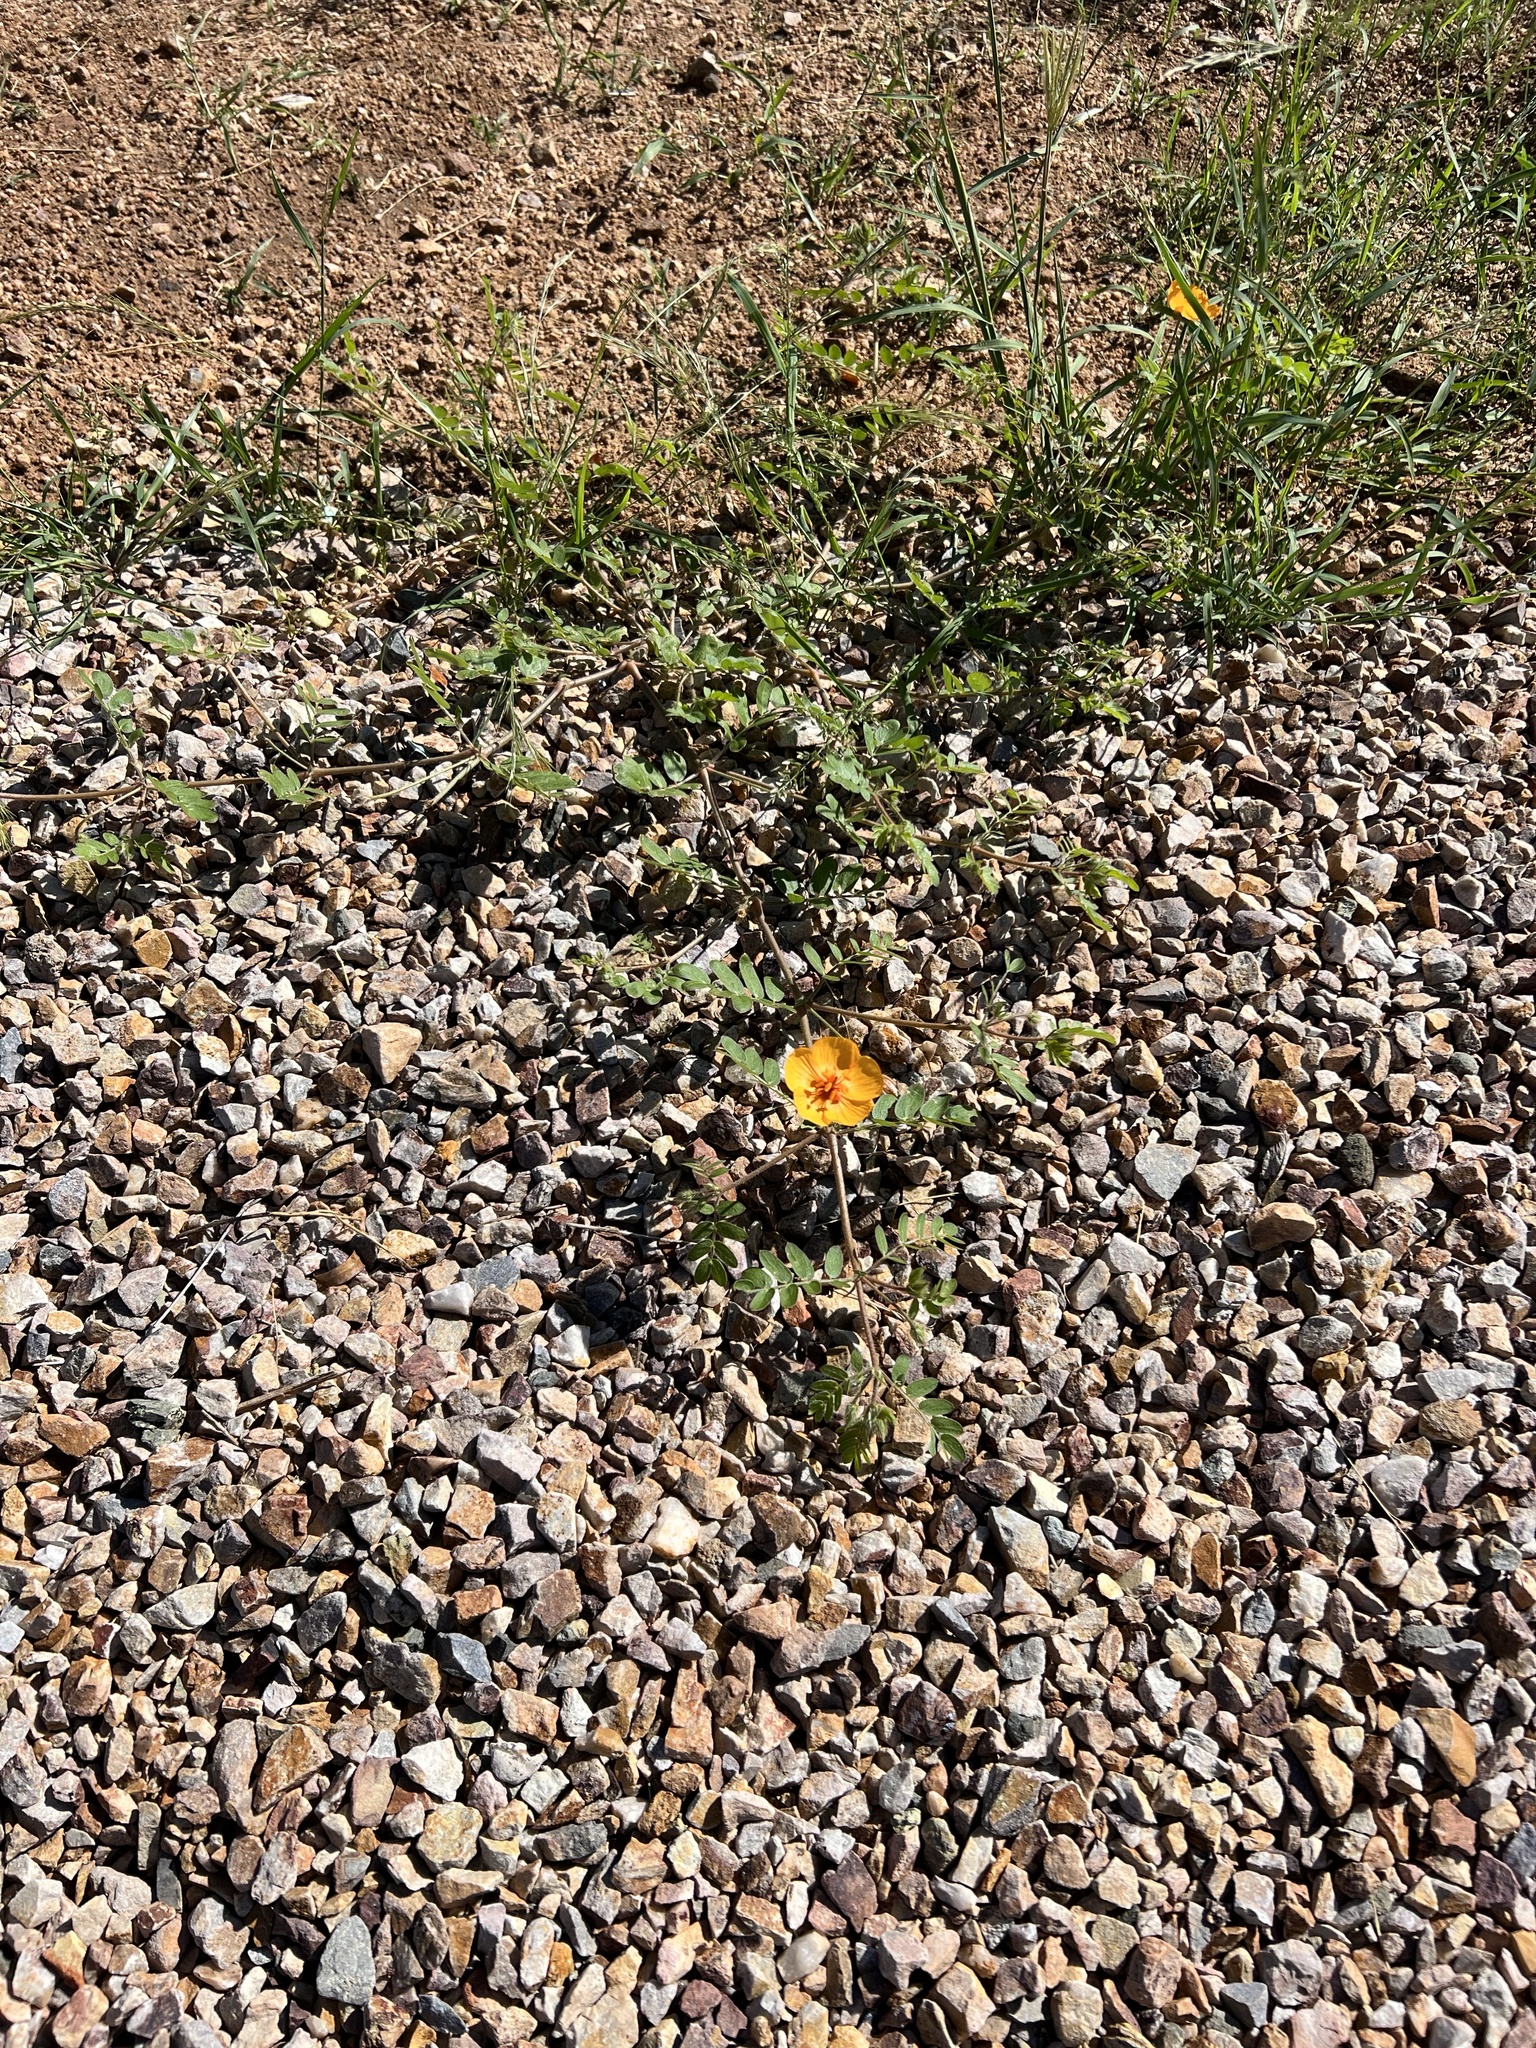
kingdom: Plantae
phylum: Tracheophyta
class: Magnoliopsida
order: Zygophyllales
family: Zygophyllaceae
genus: Kallstroemia
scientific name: Kallstroemia grandiflora
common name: Arizona-poppy
